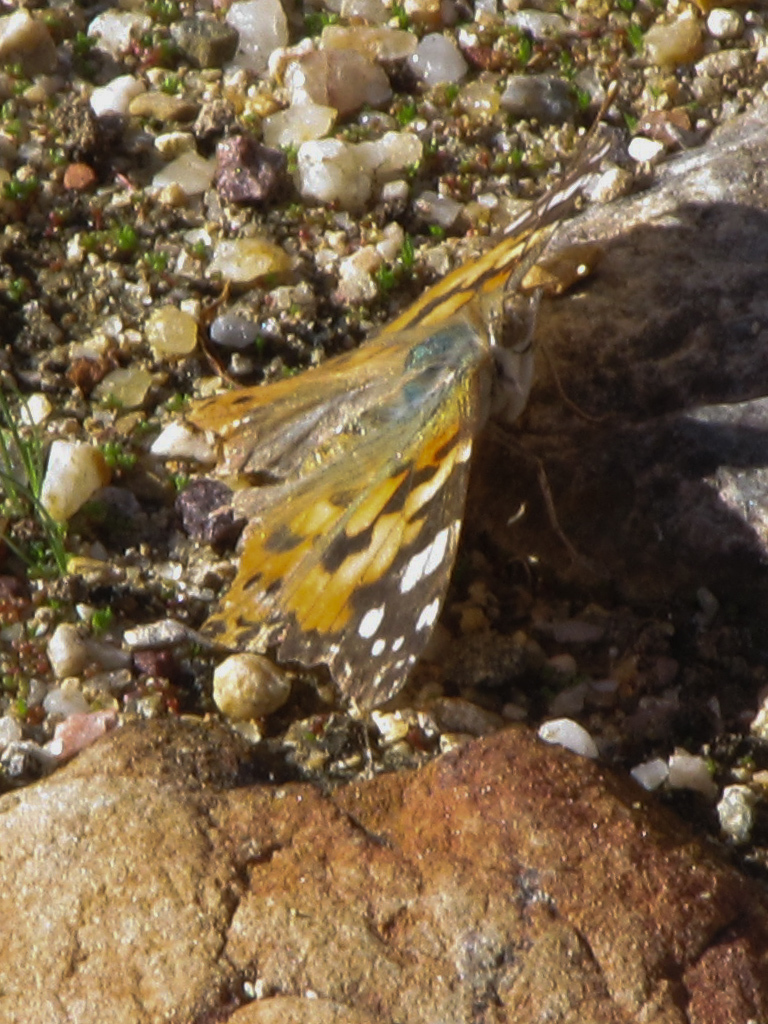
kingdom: Animalia
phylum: Arthropoda
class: Insecta
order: Lepidoptera
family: Nymphalidae
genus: Vanessa
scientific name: Vanessa cardui
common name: Painted lady
